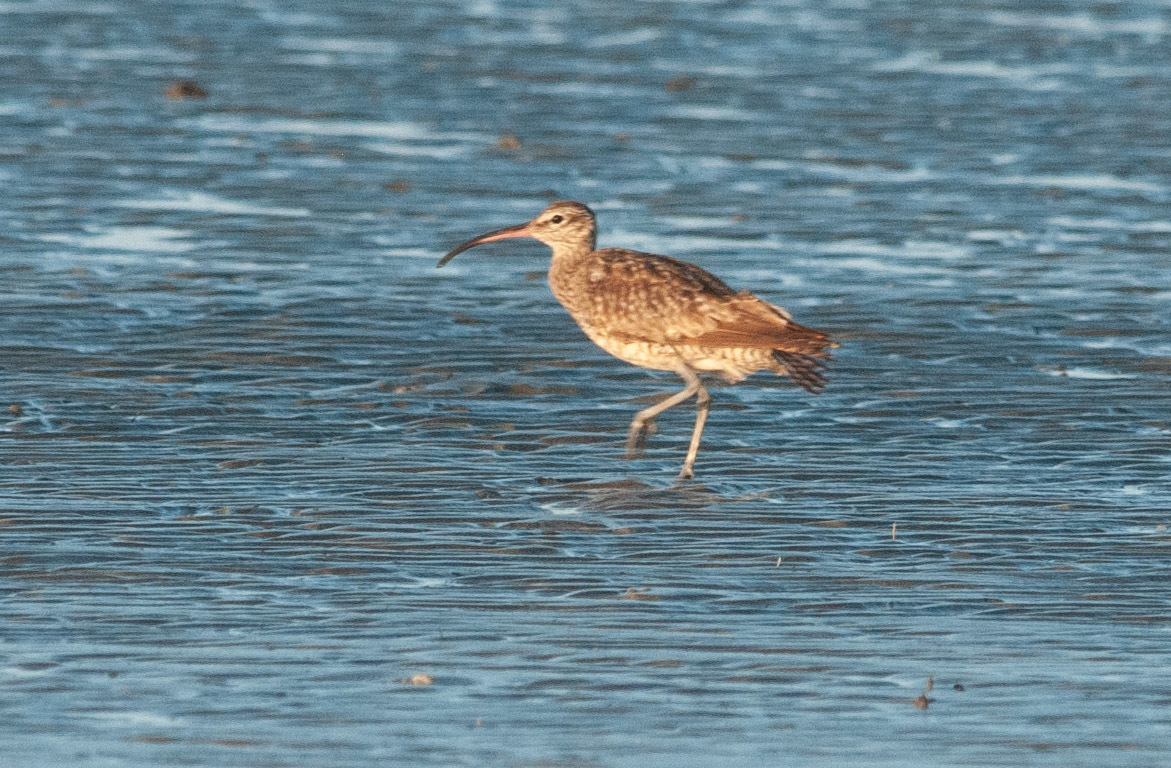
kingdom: Animalia
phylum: Chordata
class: Aves
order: Charadriiformes
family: Scolopacidae
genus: Numenius
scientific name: Numenius phaeopus
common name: Whimbrel
